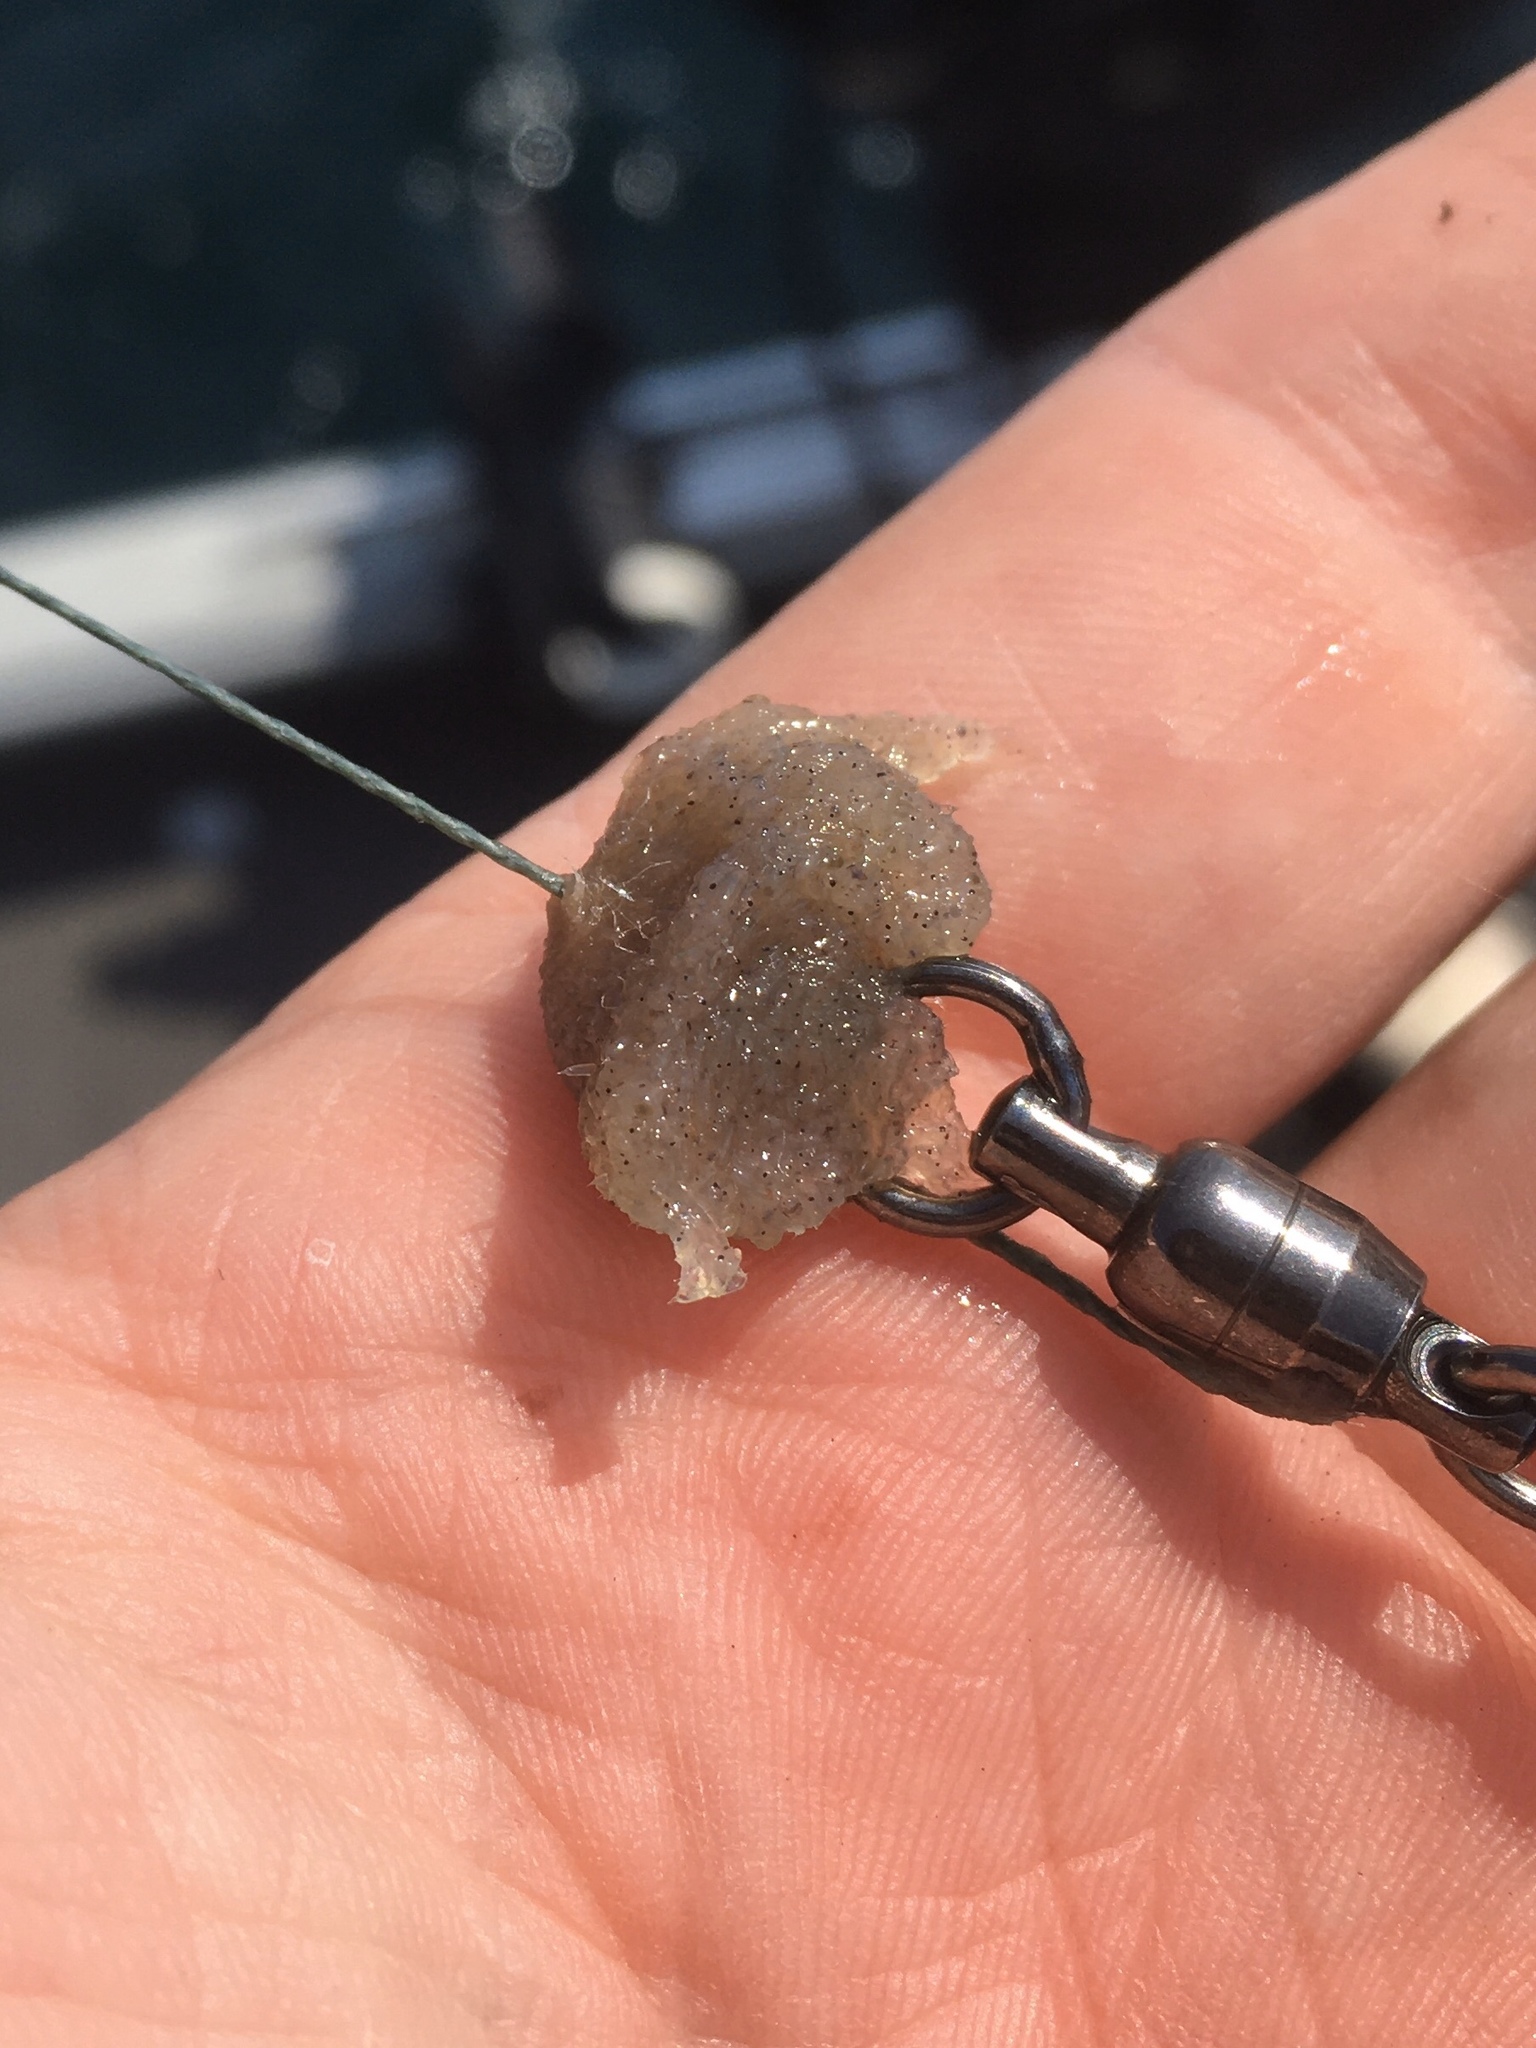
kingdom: Animalia
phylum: Arthropoda
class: Branchiopoda
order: Diplostraca
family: Cercopagidae
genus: Bythotrephes
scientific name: Bythotrephes longimanus
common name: Spiny waterflea
